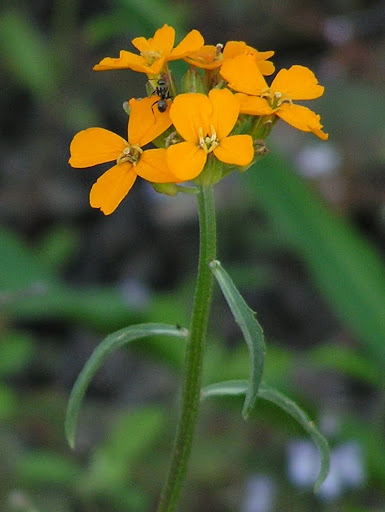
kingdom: Plantae
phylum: Tracheophyta
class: Magnoliopsida
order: Brassicales
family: Brassicaceae
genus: Erysimum
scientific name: Erysimum capitatum
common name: Western wallflower
